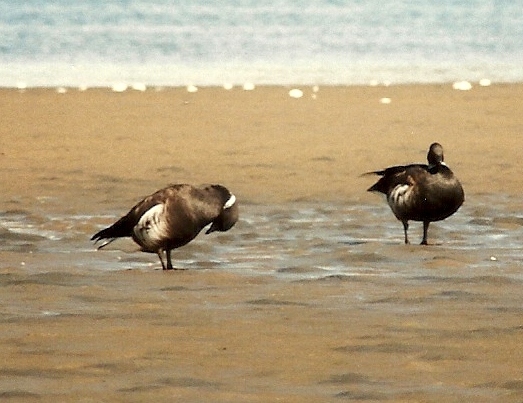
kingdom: Animalia
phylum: Chordata
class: Aves
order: Anseriformes
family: Anatidae
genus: Branta
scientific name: Branta bernicla
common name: Brant goose
